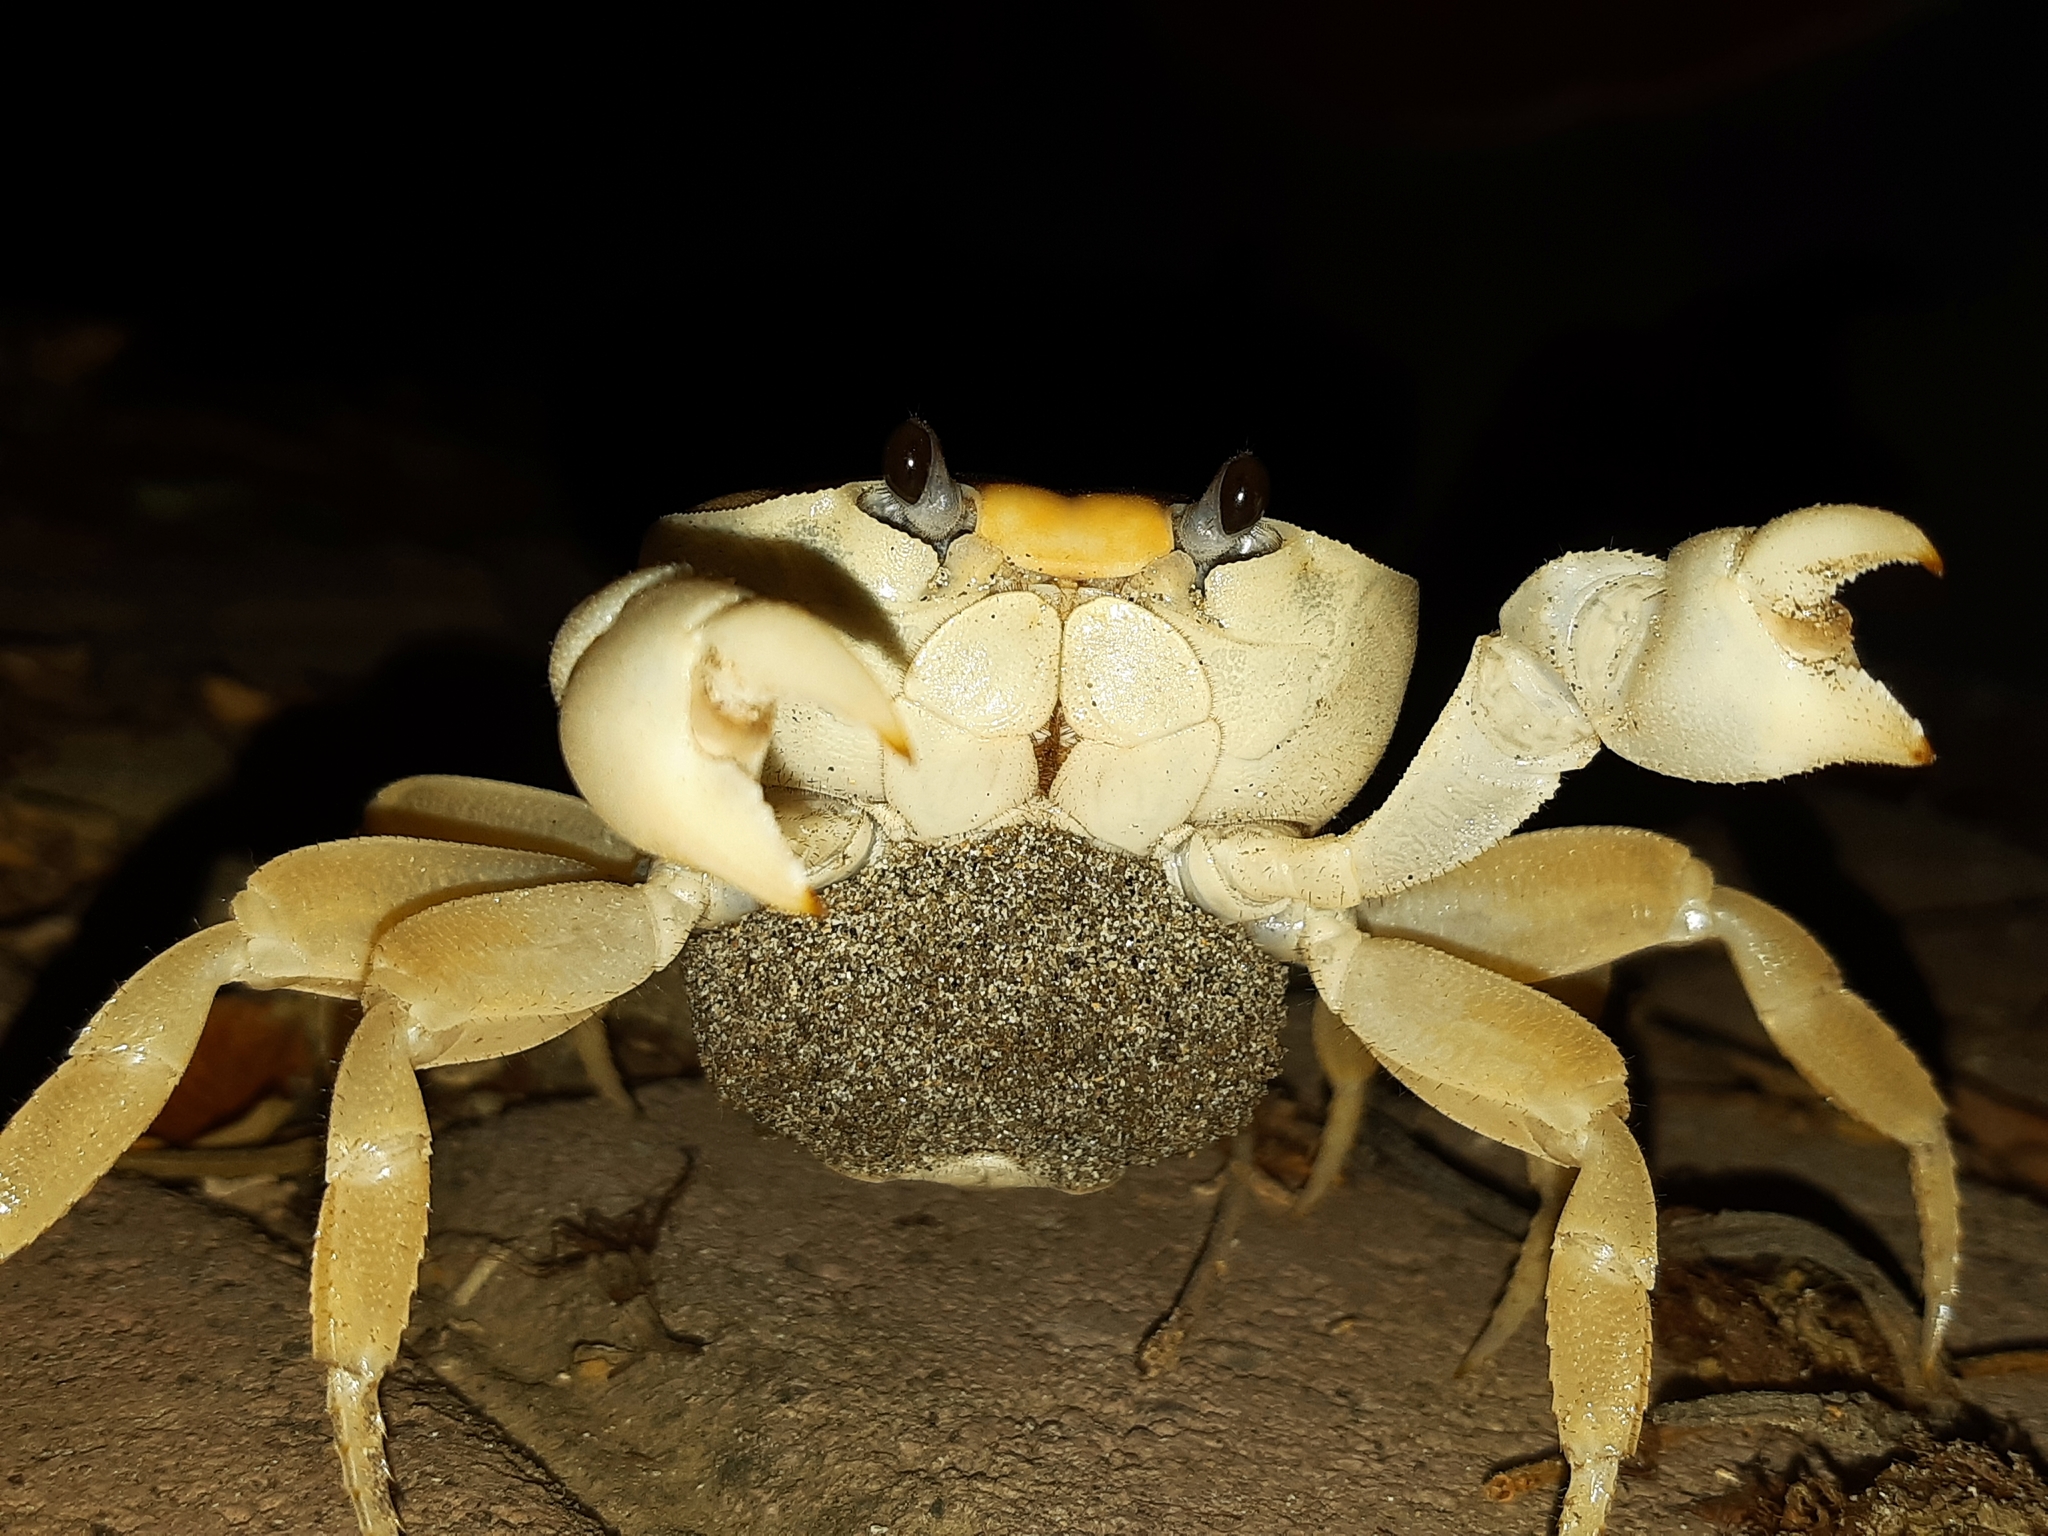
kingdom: Animalia
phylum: Arthropoda
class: Malacostraca
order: Decapoda
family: Gecarcinidae
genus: Gecarcinus
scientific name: Gecarcinus nobilii
